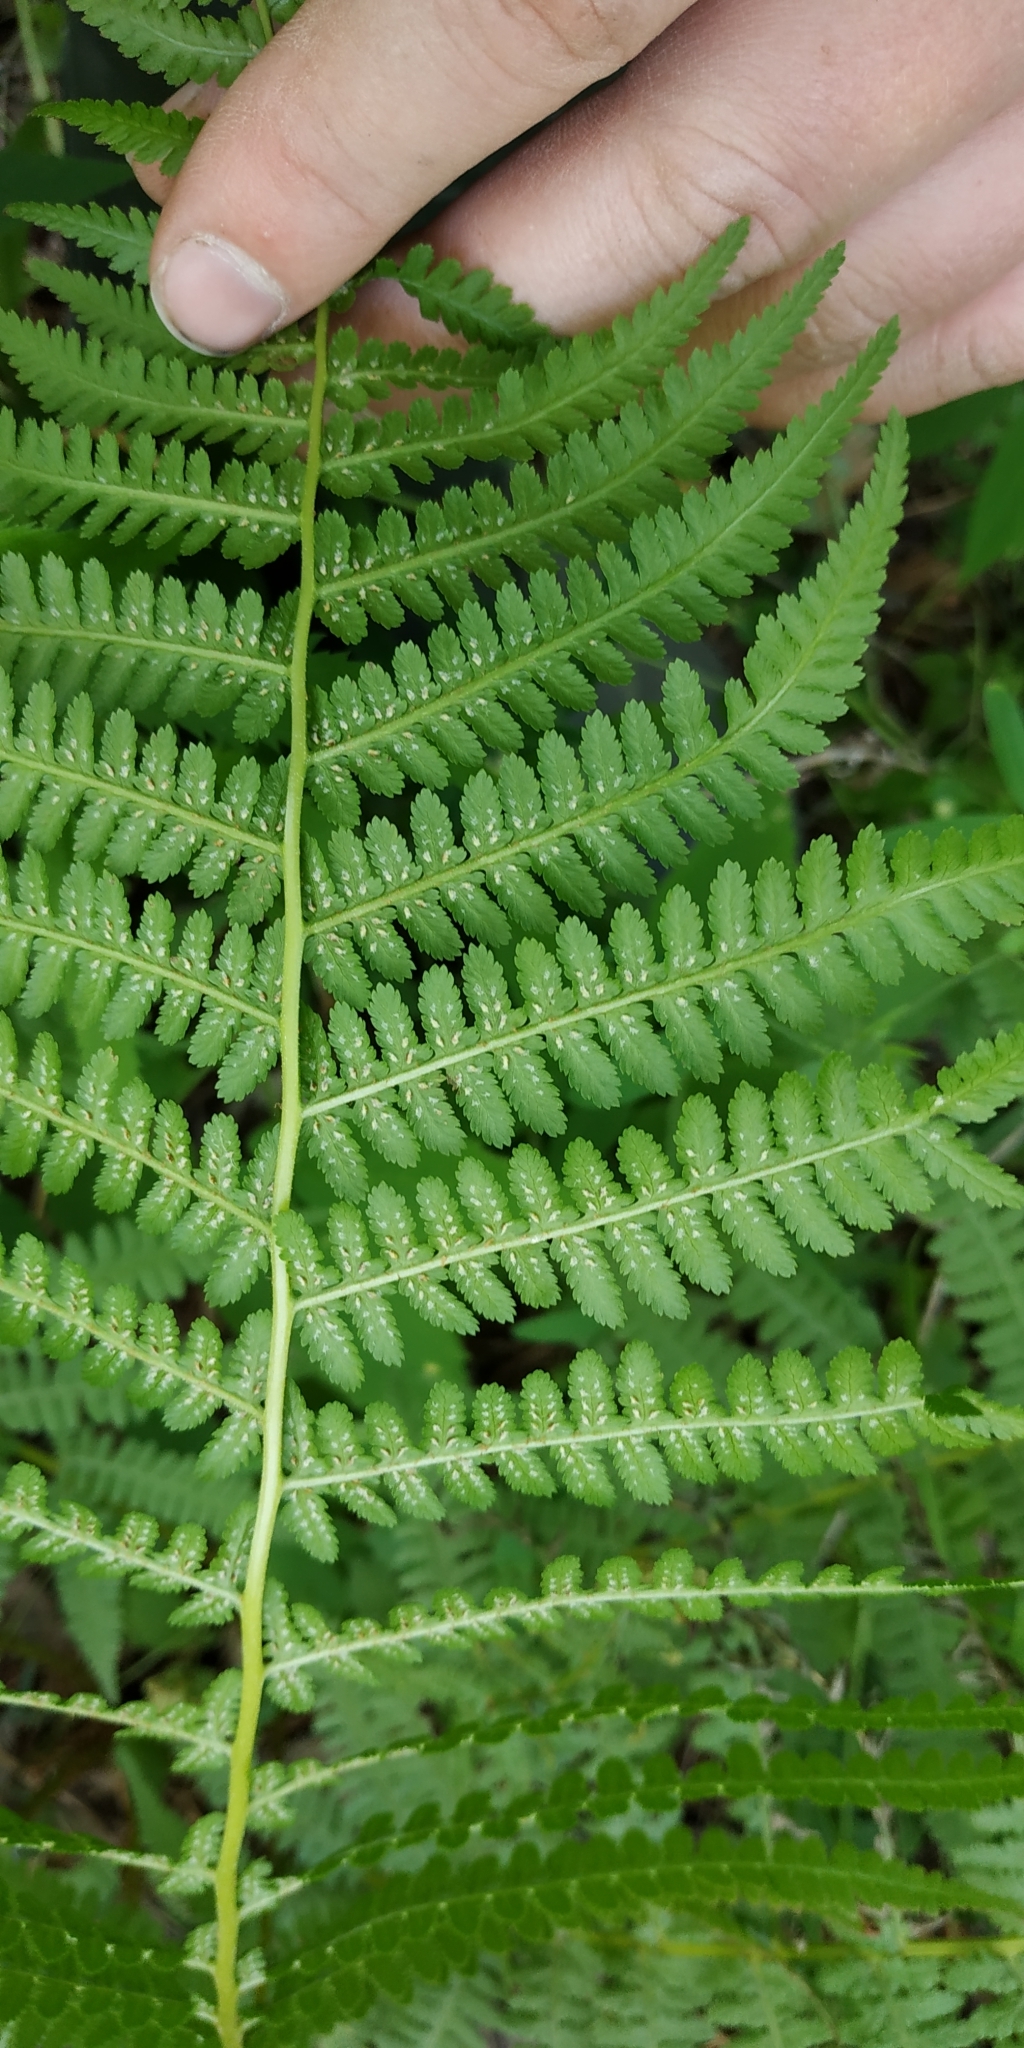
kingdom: Plantae
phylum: Tracheophyta
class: Polypodiopsida
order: Polypodiales
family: Athyriaceae
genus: Athyrium
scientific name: Athyrium filix-femina
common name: Lady fern
